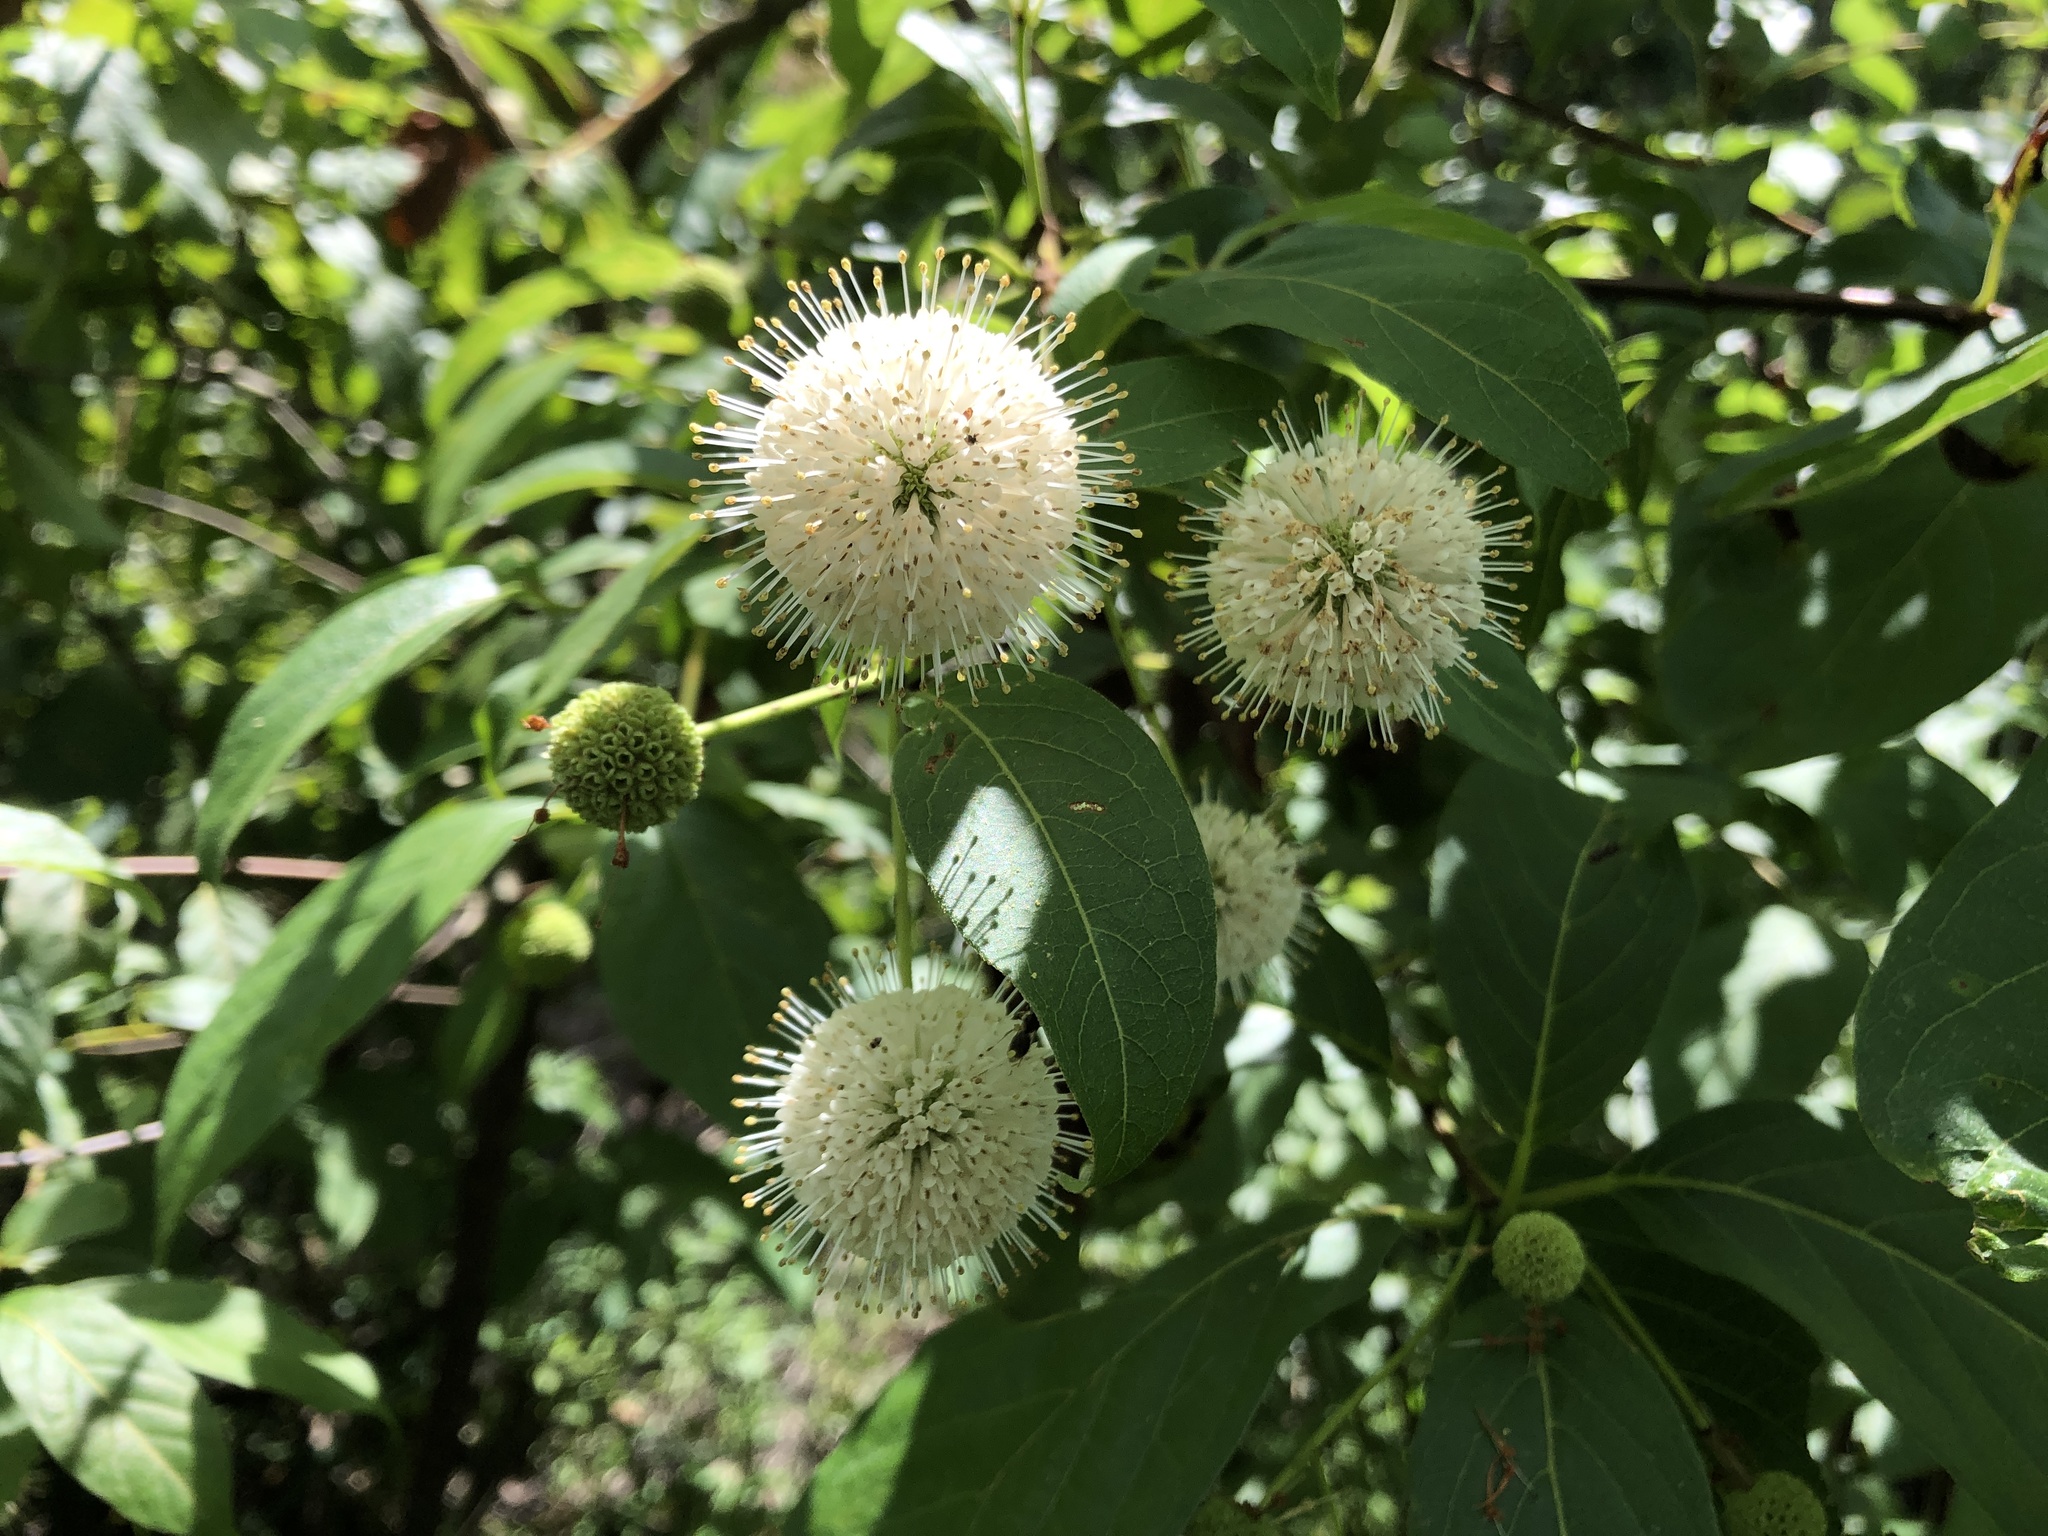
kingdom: Plantae
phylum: Tracheophyta
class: Magnoliopsida
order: Gentianales
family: Rubiaceae
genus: Cephalanthus
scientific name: Cephalanthus occidentalis
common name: Button-willow
